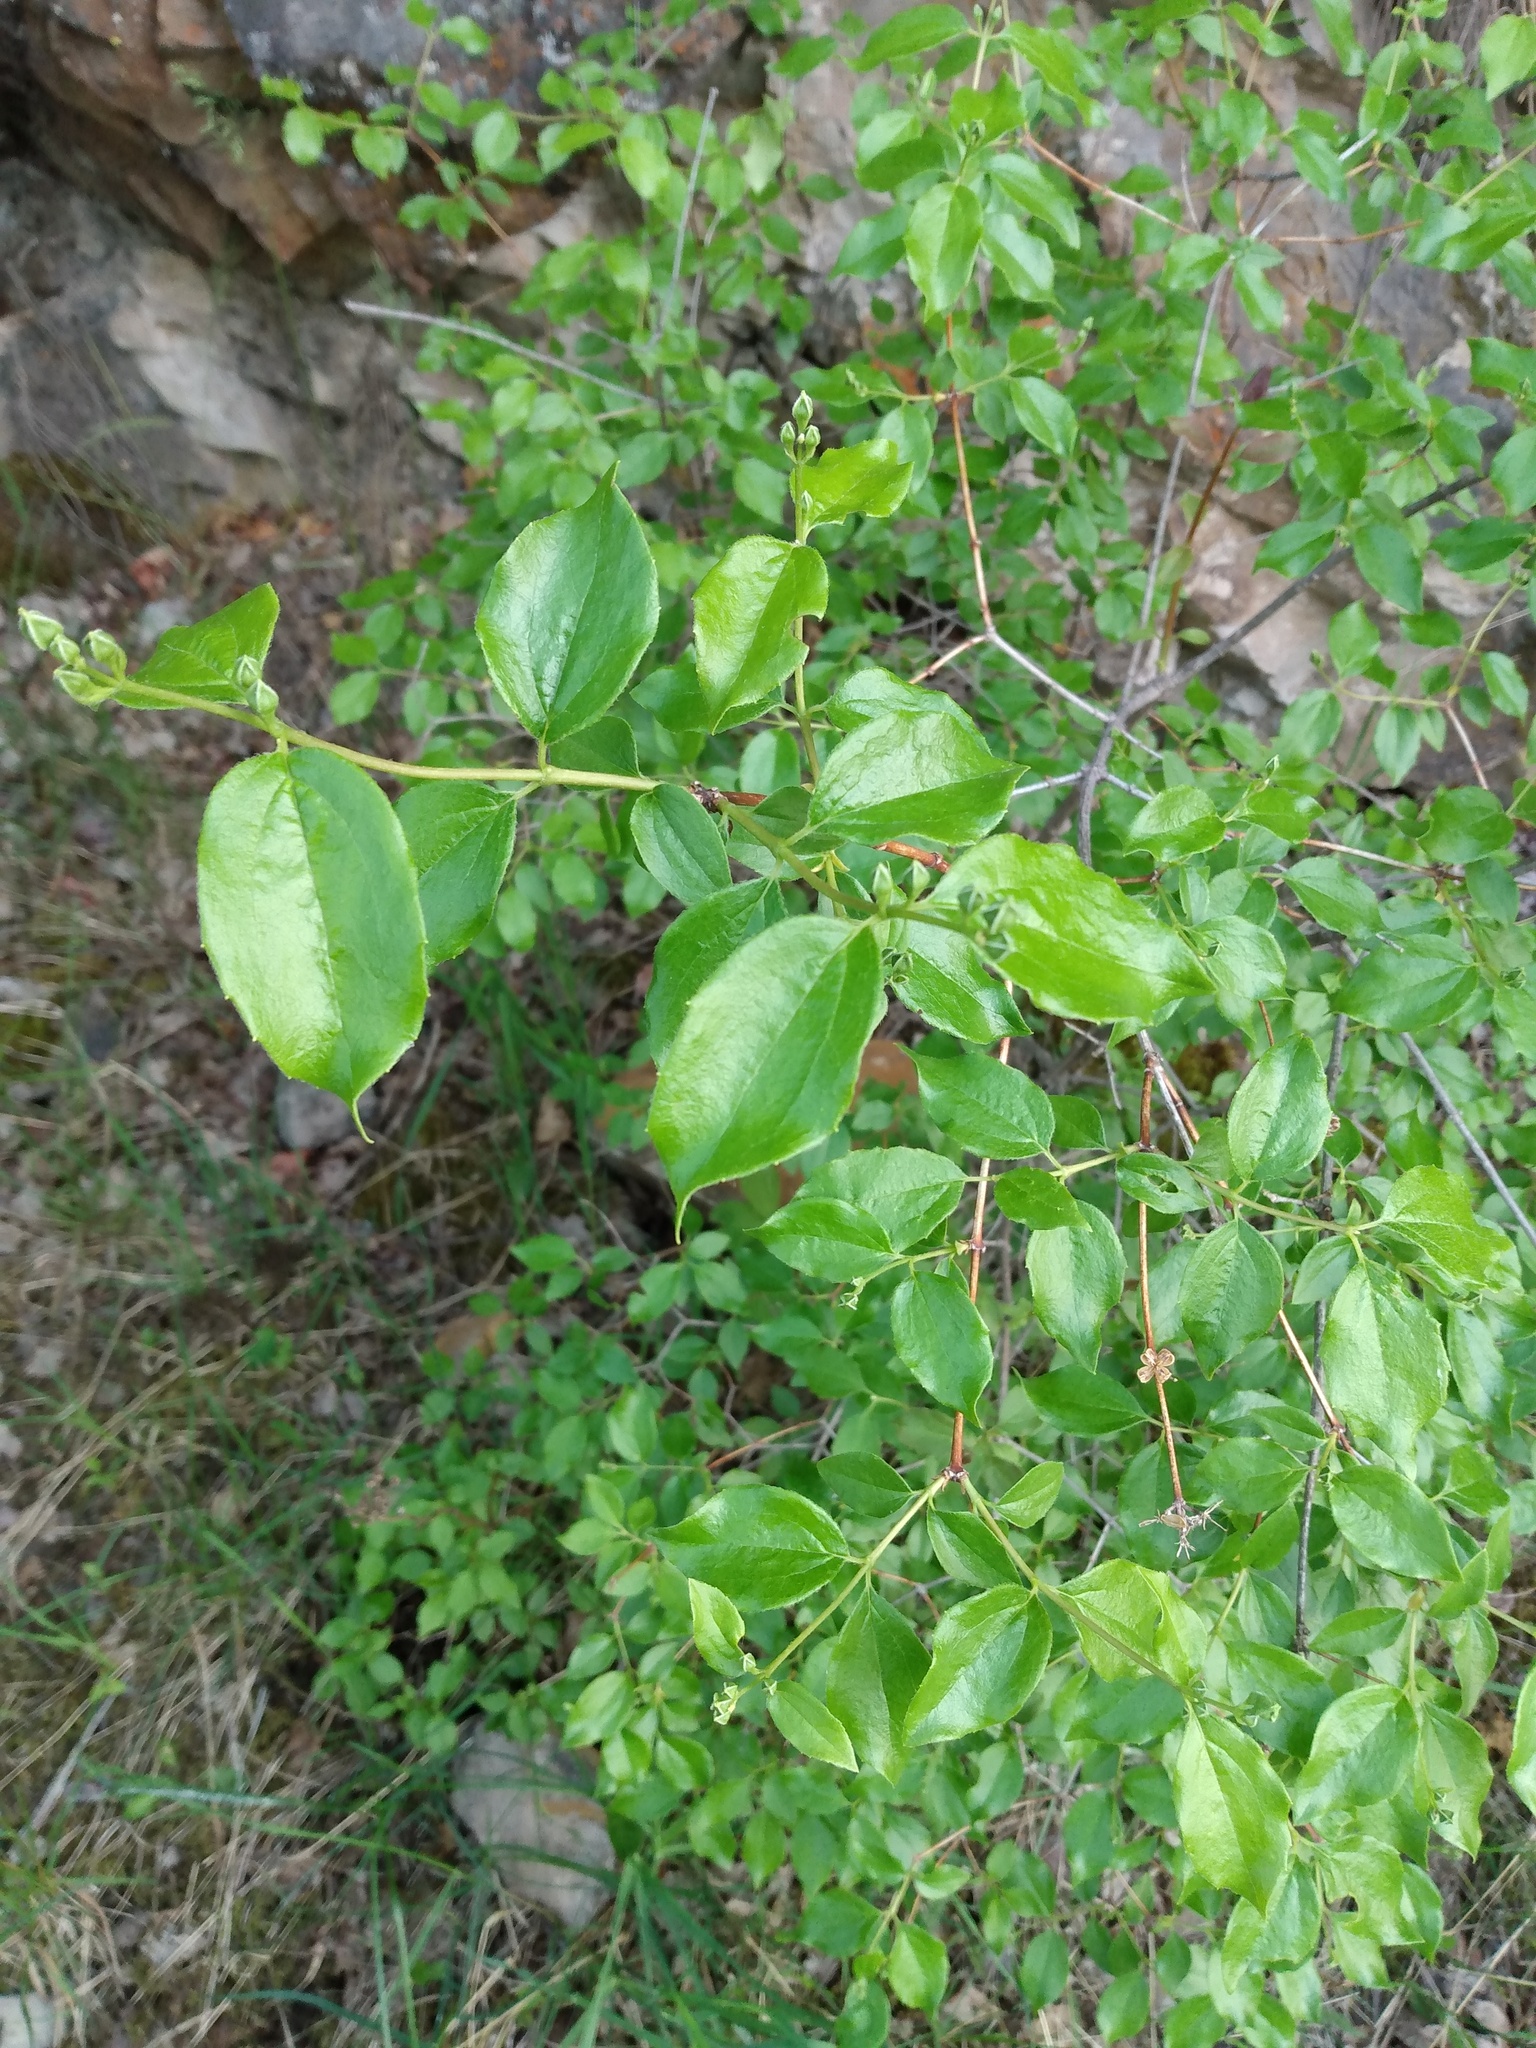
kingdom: Plantae
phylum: Tracheophyta
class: Magnoliopsida
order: Cornales
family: Hydrangeaceae
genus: Philadelphus
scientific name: Philadelphus lewisii
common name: Lewis's mock orange
